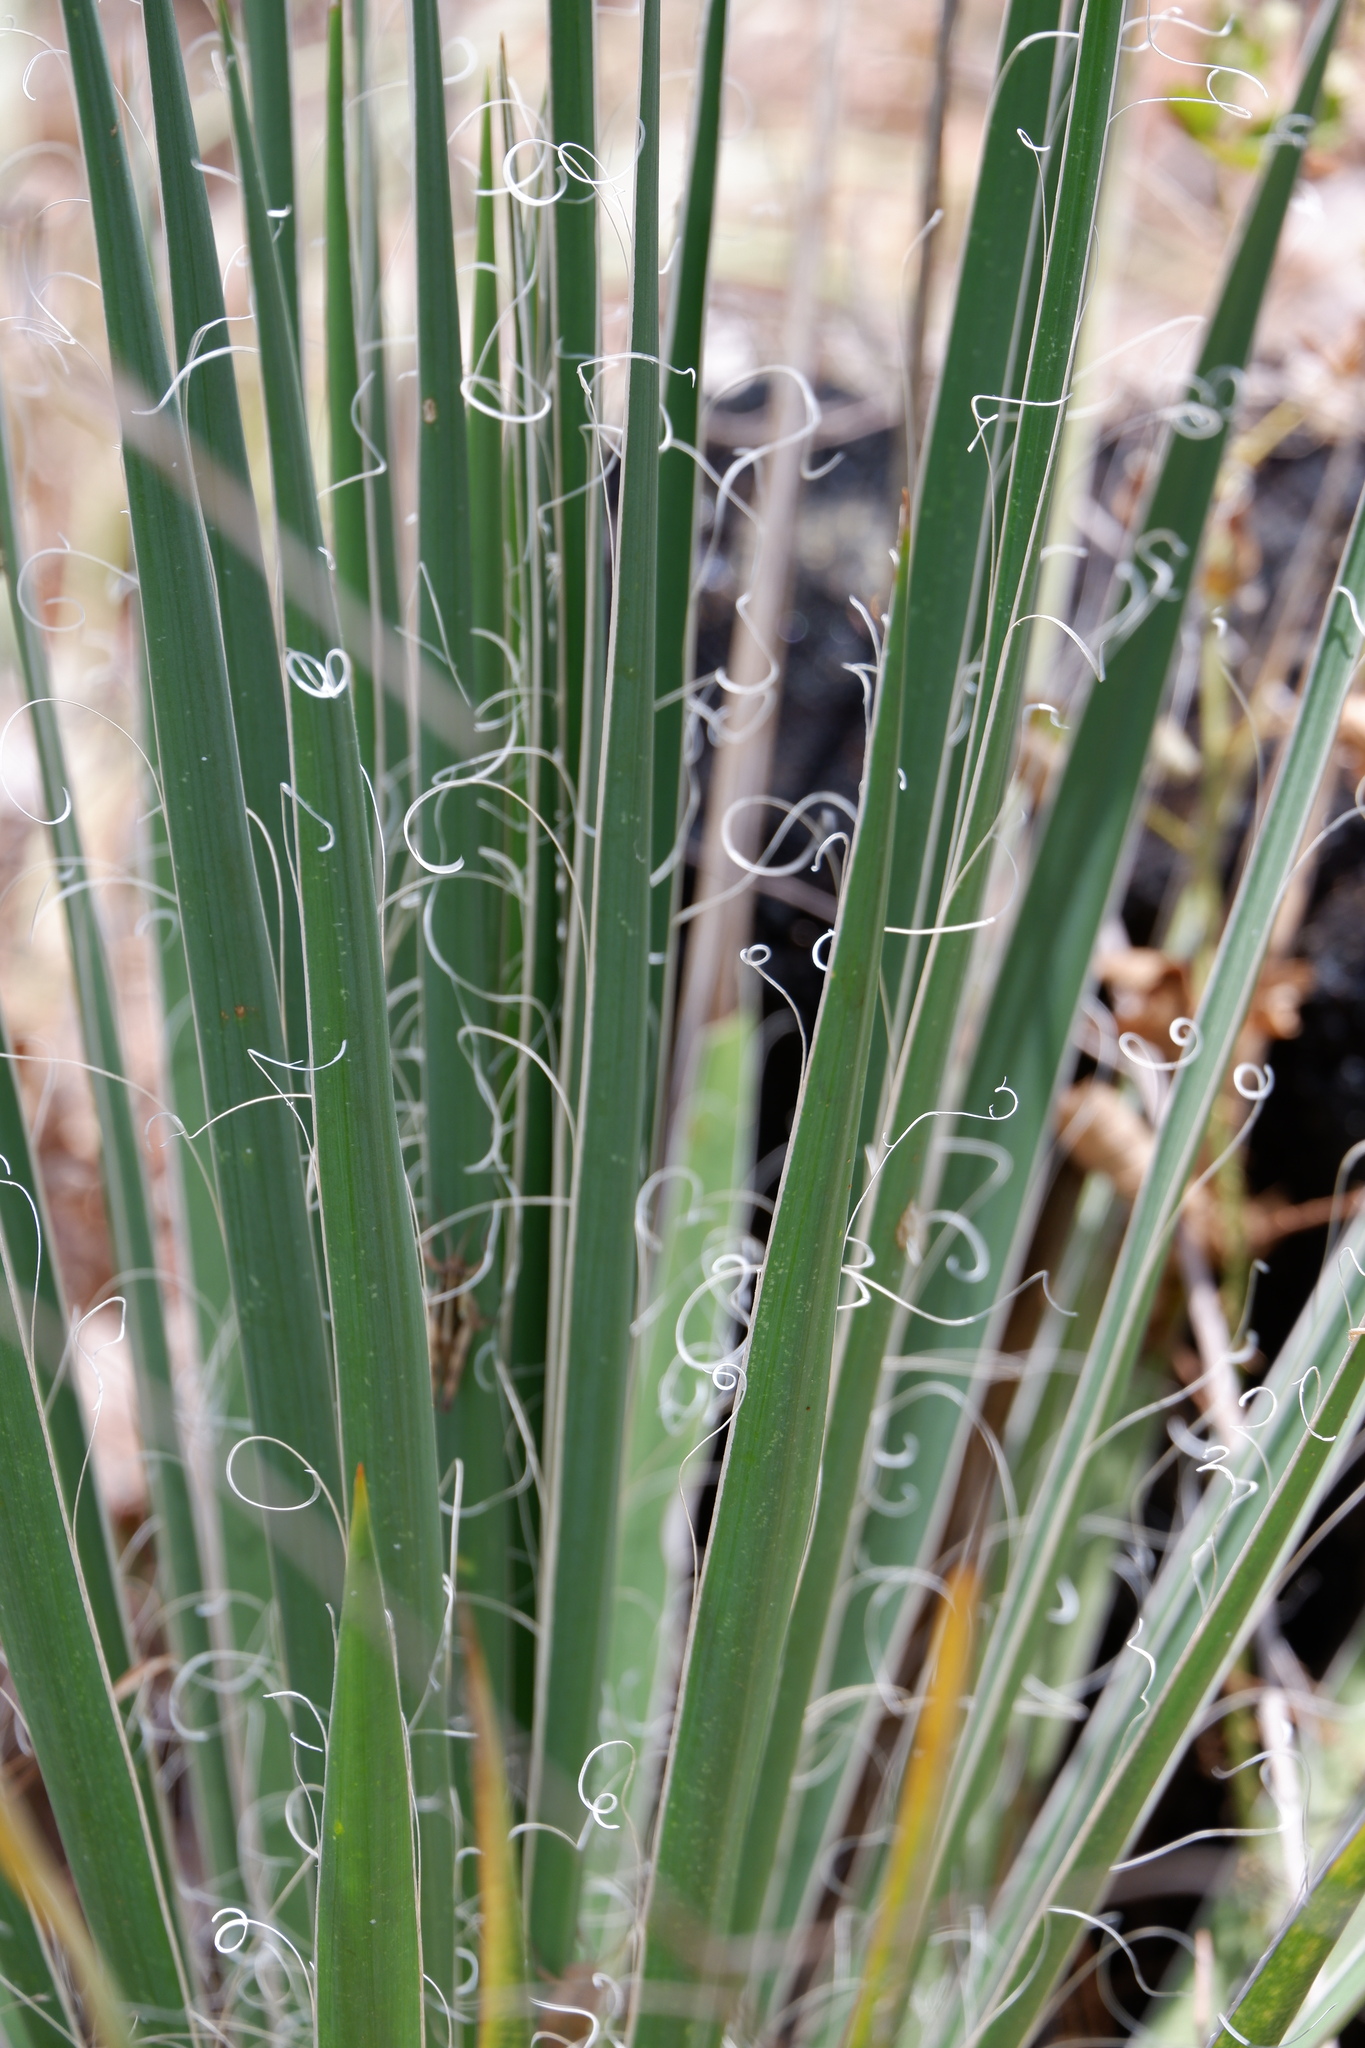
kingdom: Plantae
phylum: Tracheophyta
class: Liliopsida
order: Asparagales
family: Asparagaceae
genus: Yucca
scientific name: Yucca constricta
